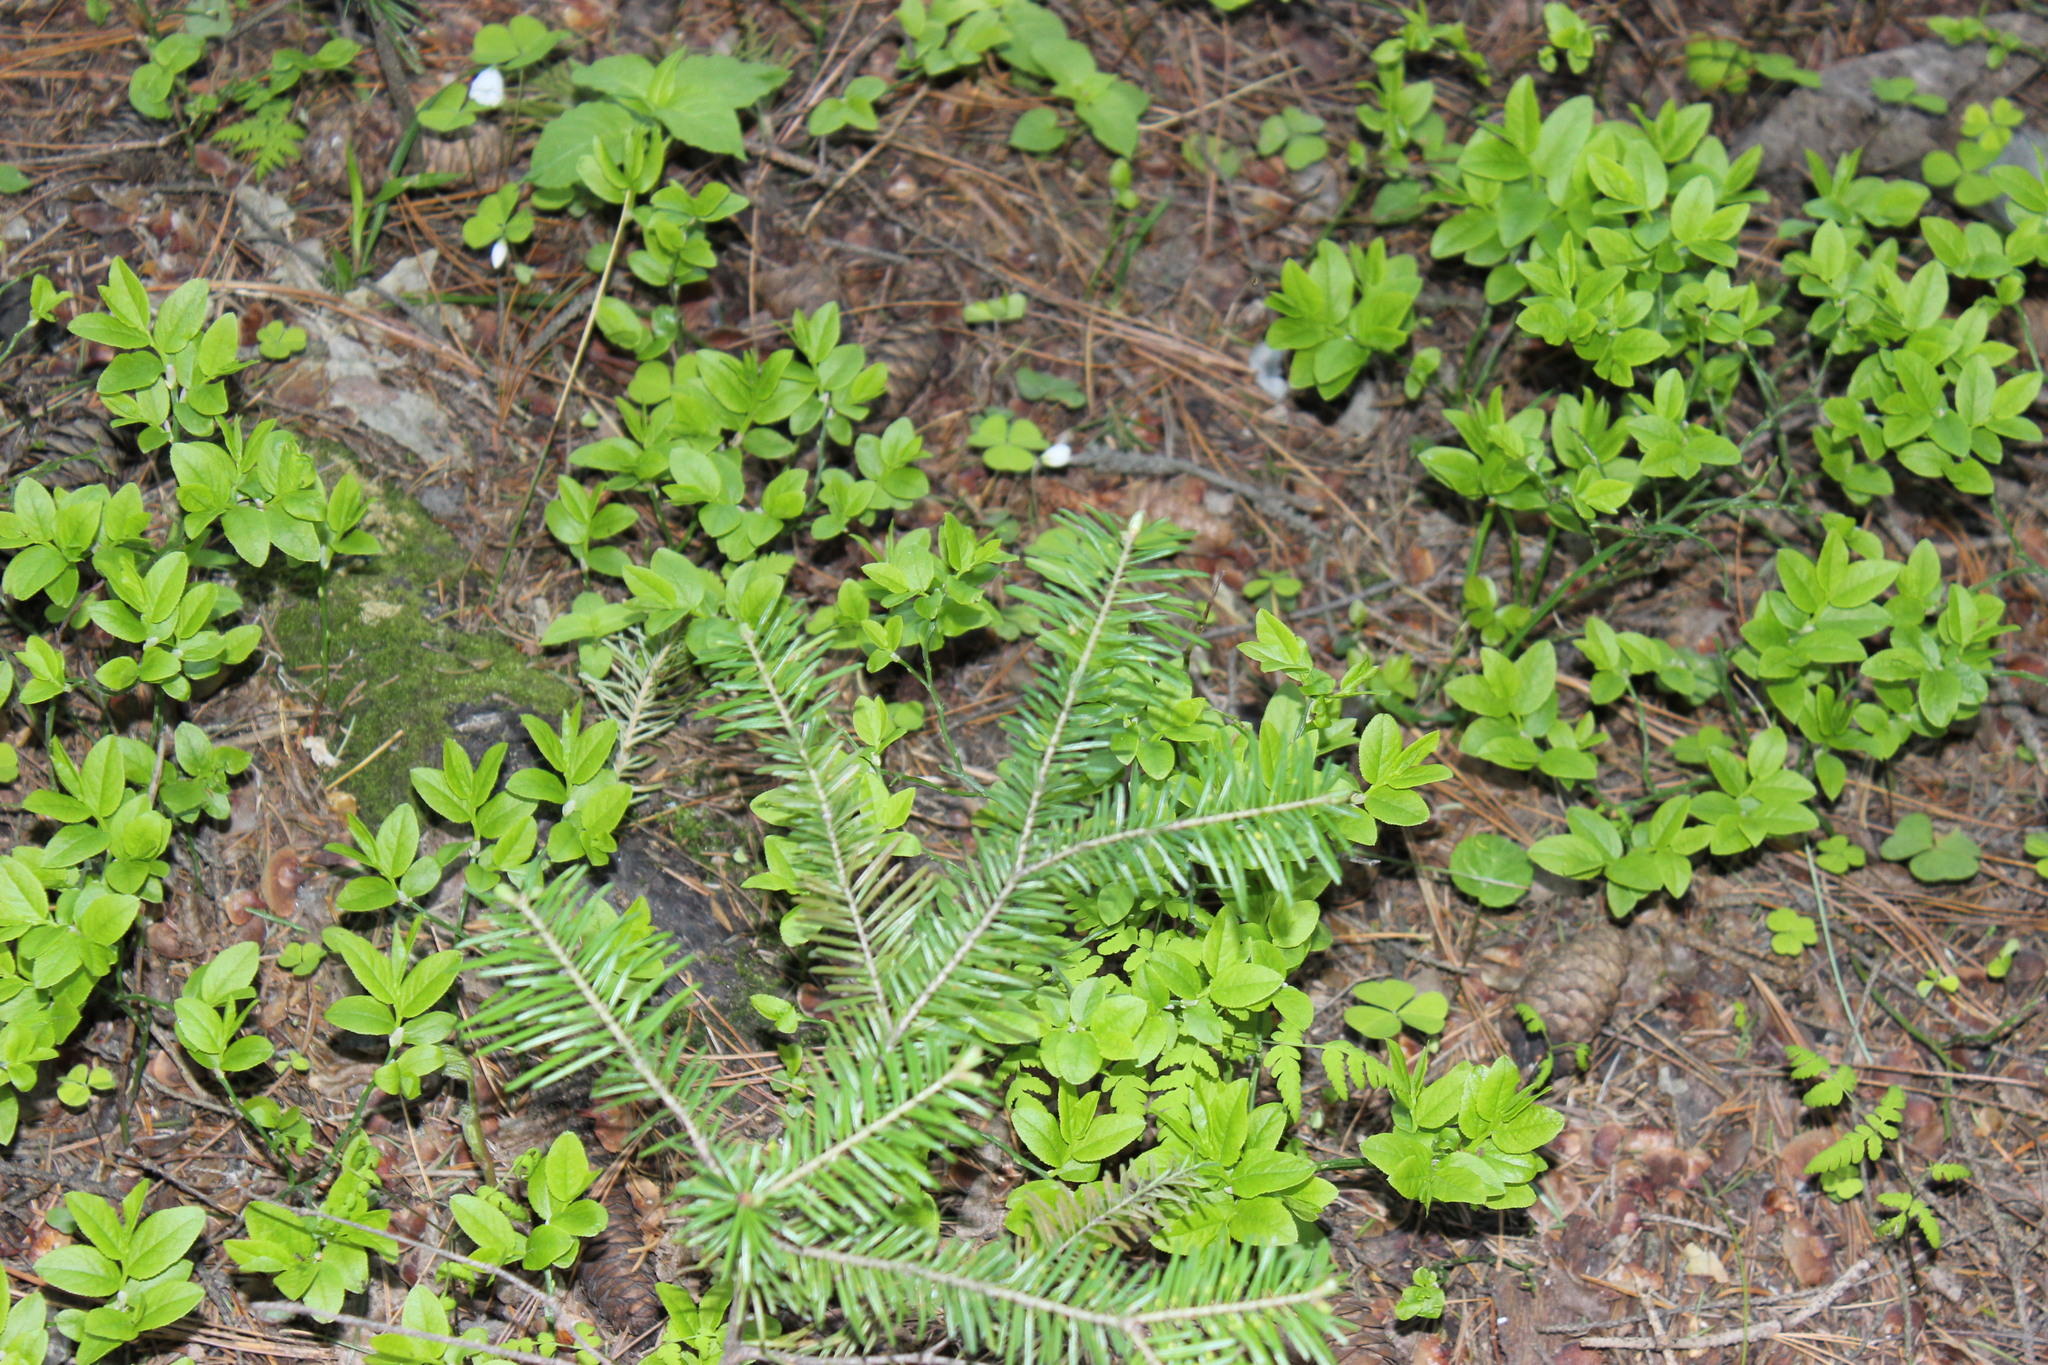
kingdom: Plantae
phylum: Tracheophyta
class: Magnoliopsida
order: Ericales
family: Ericaceae
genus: Vaccinium
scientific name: Vaccinium myrtillus
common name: Bilberry
